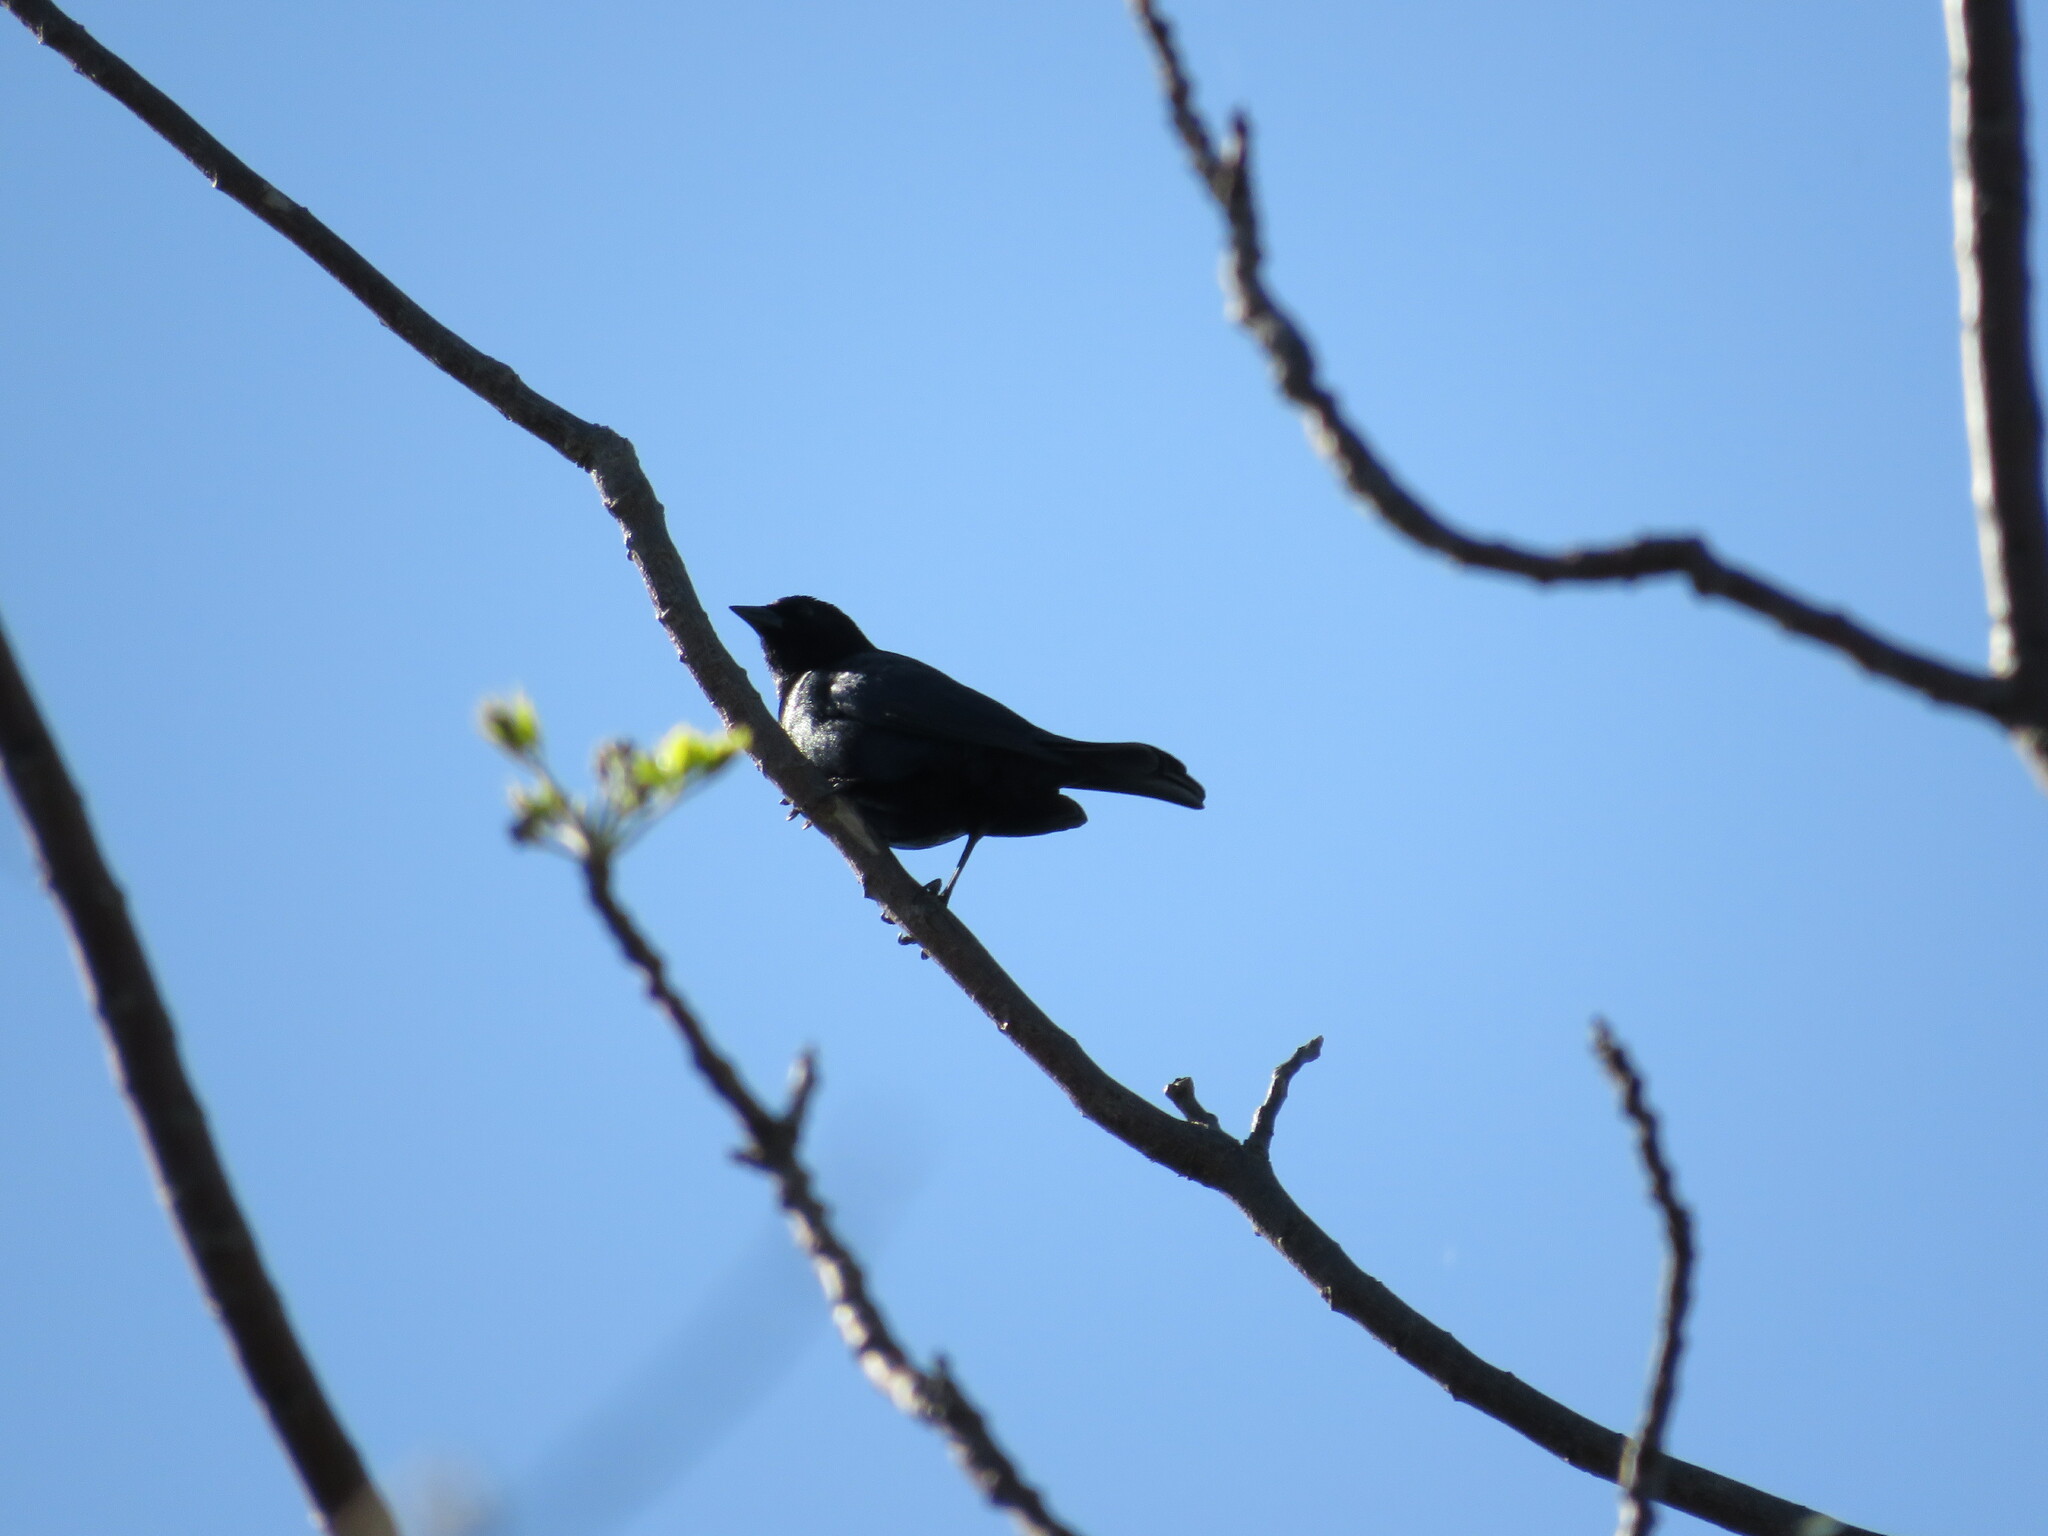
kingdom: Animalia
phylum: Chordata
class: Aves
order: Passeriformes
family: Icteridae
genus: Molothrus
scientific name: Molothrus bonariensis
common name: Shiny cowbird
